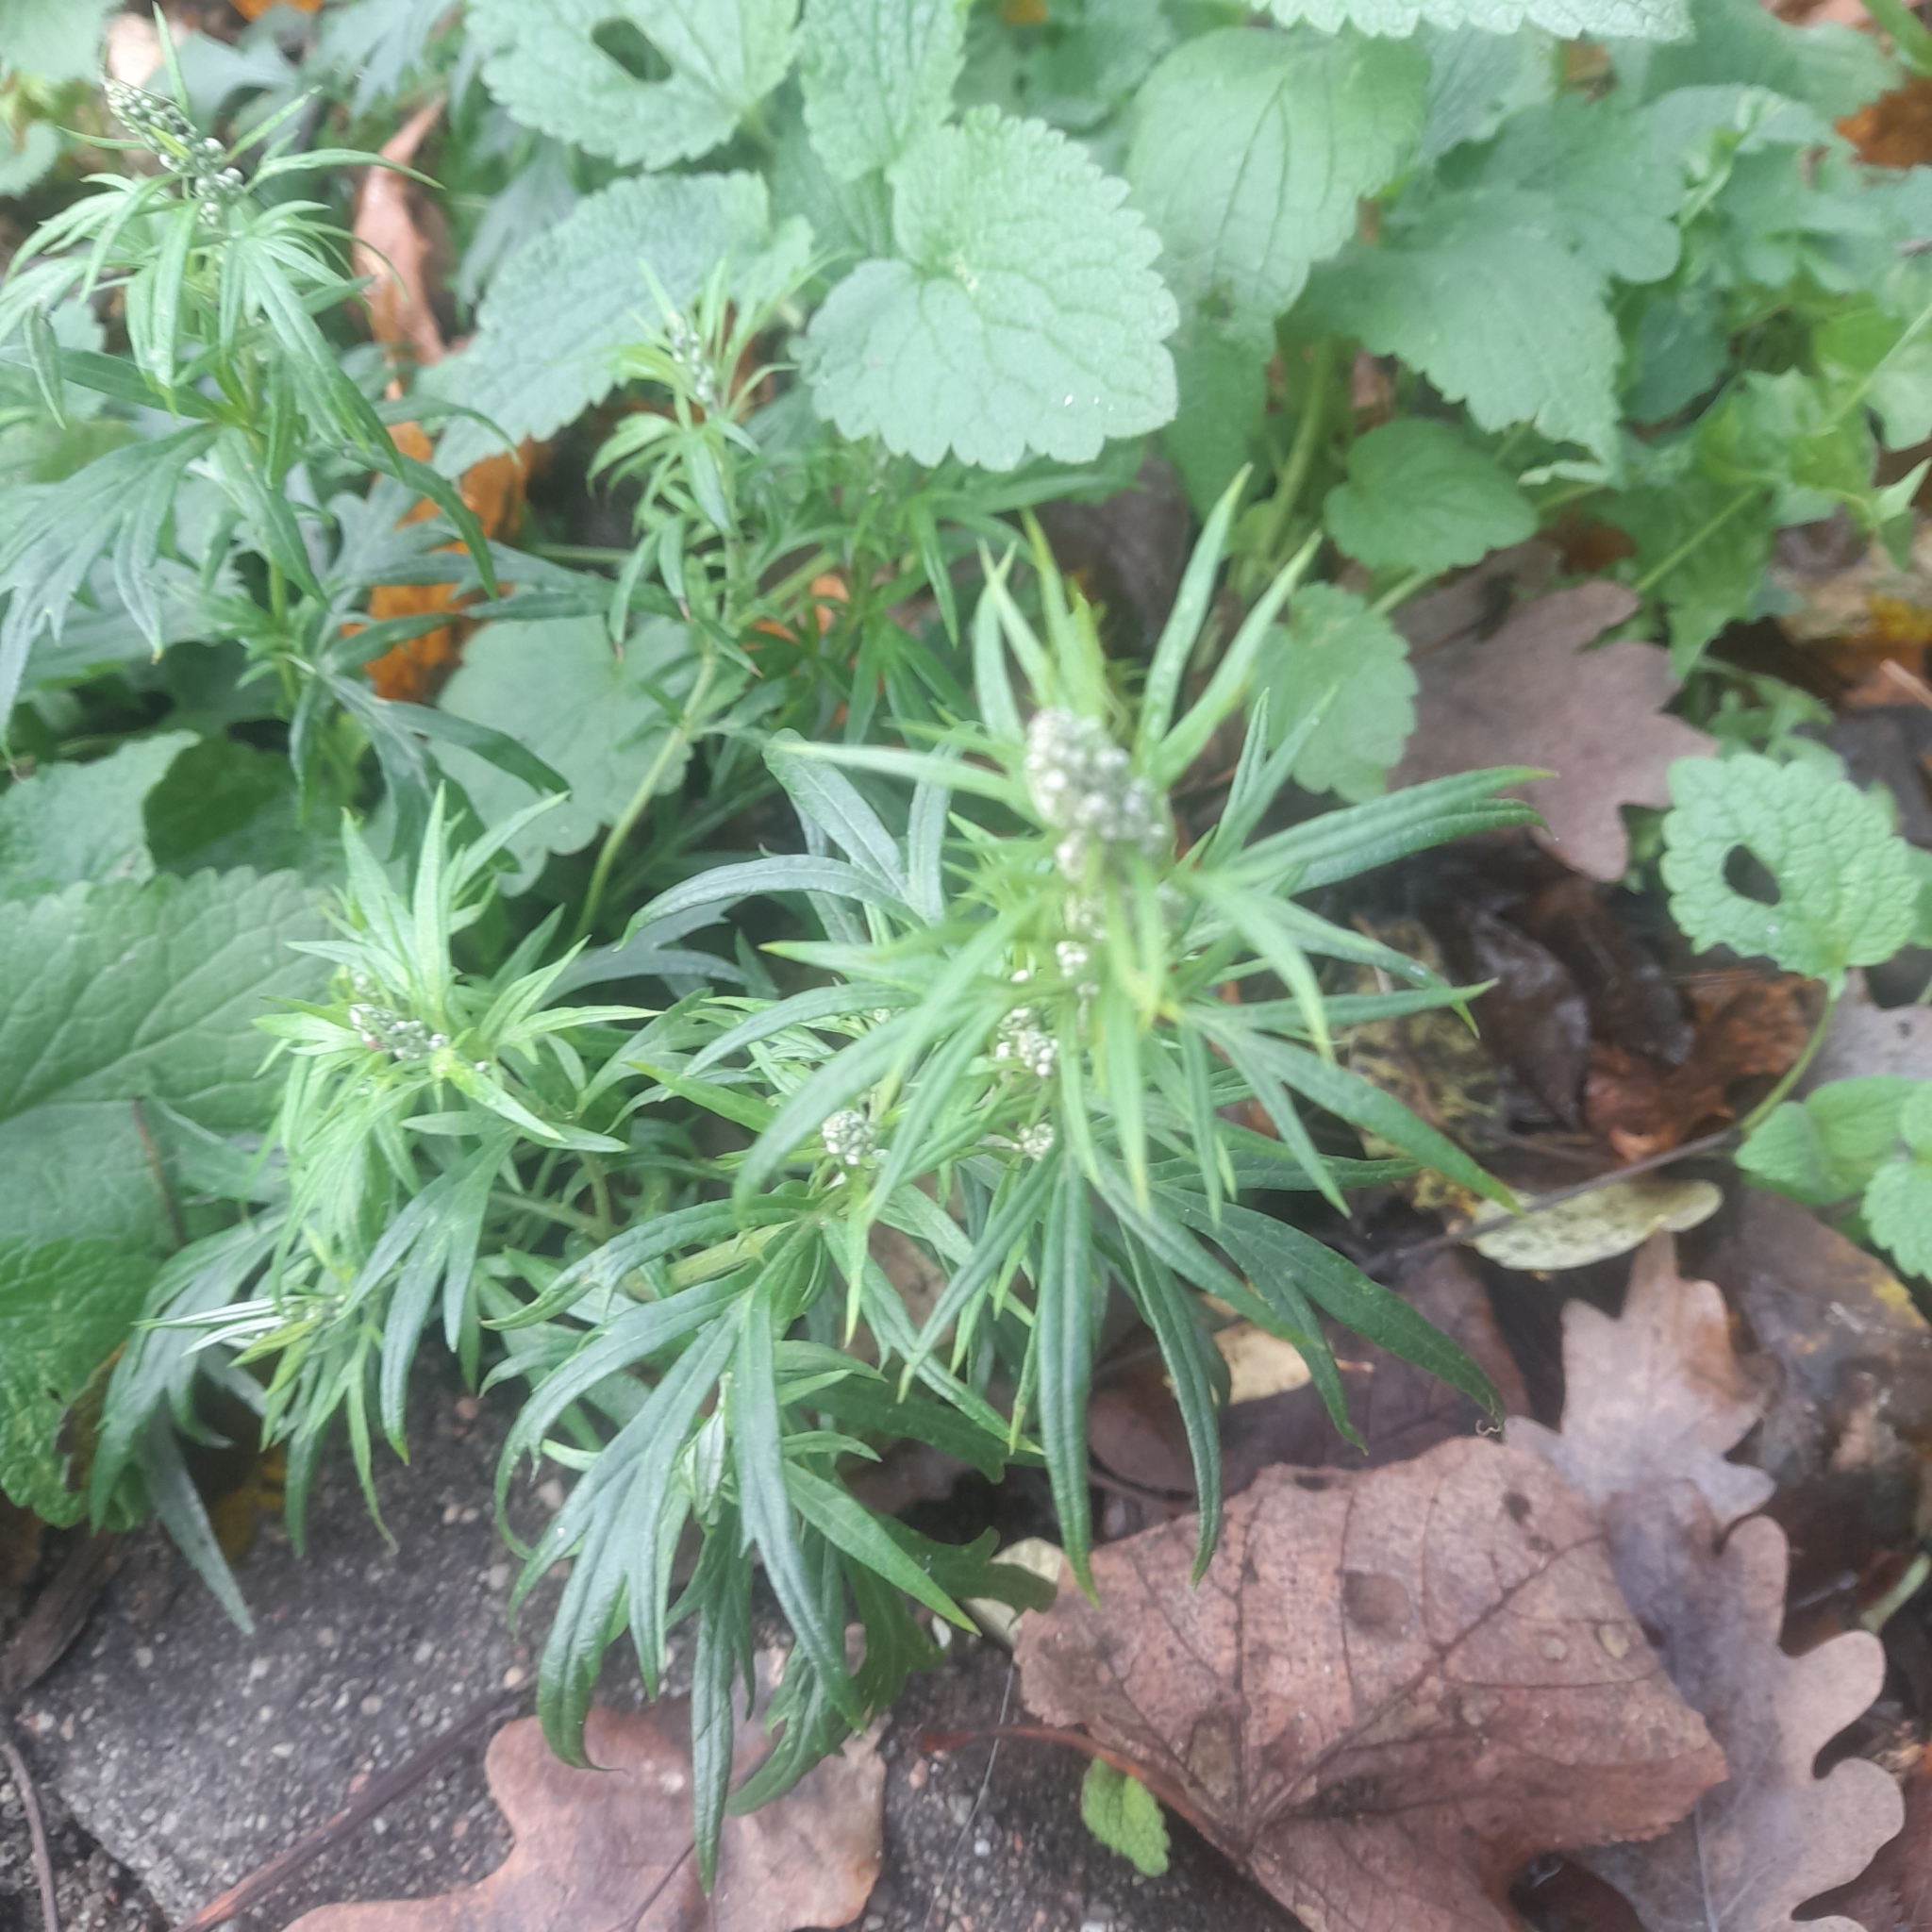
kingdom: Plantae
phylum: Tracheophyta
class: Magnoliopsida
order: Asterales
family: Asteraceae
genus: Artemisia
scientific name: Artemisia vulgaris
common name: Mugwort
